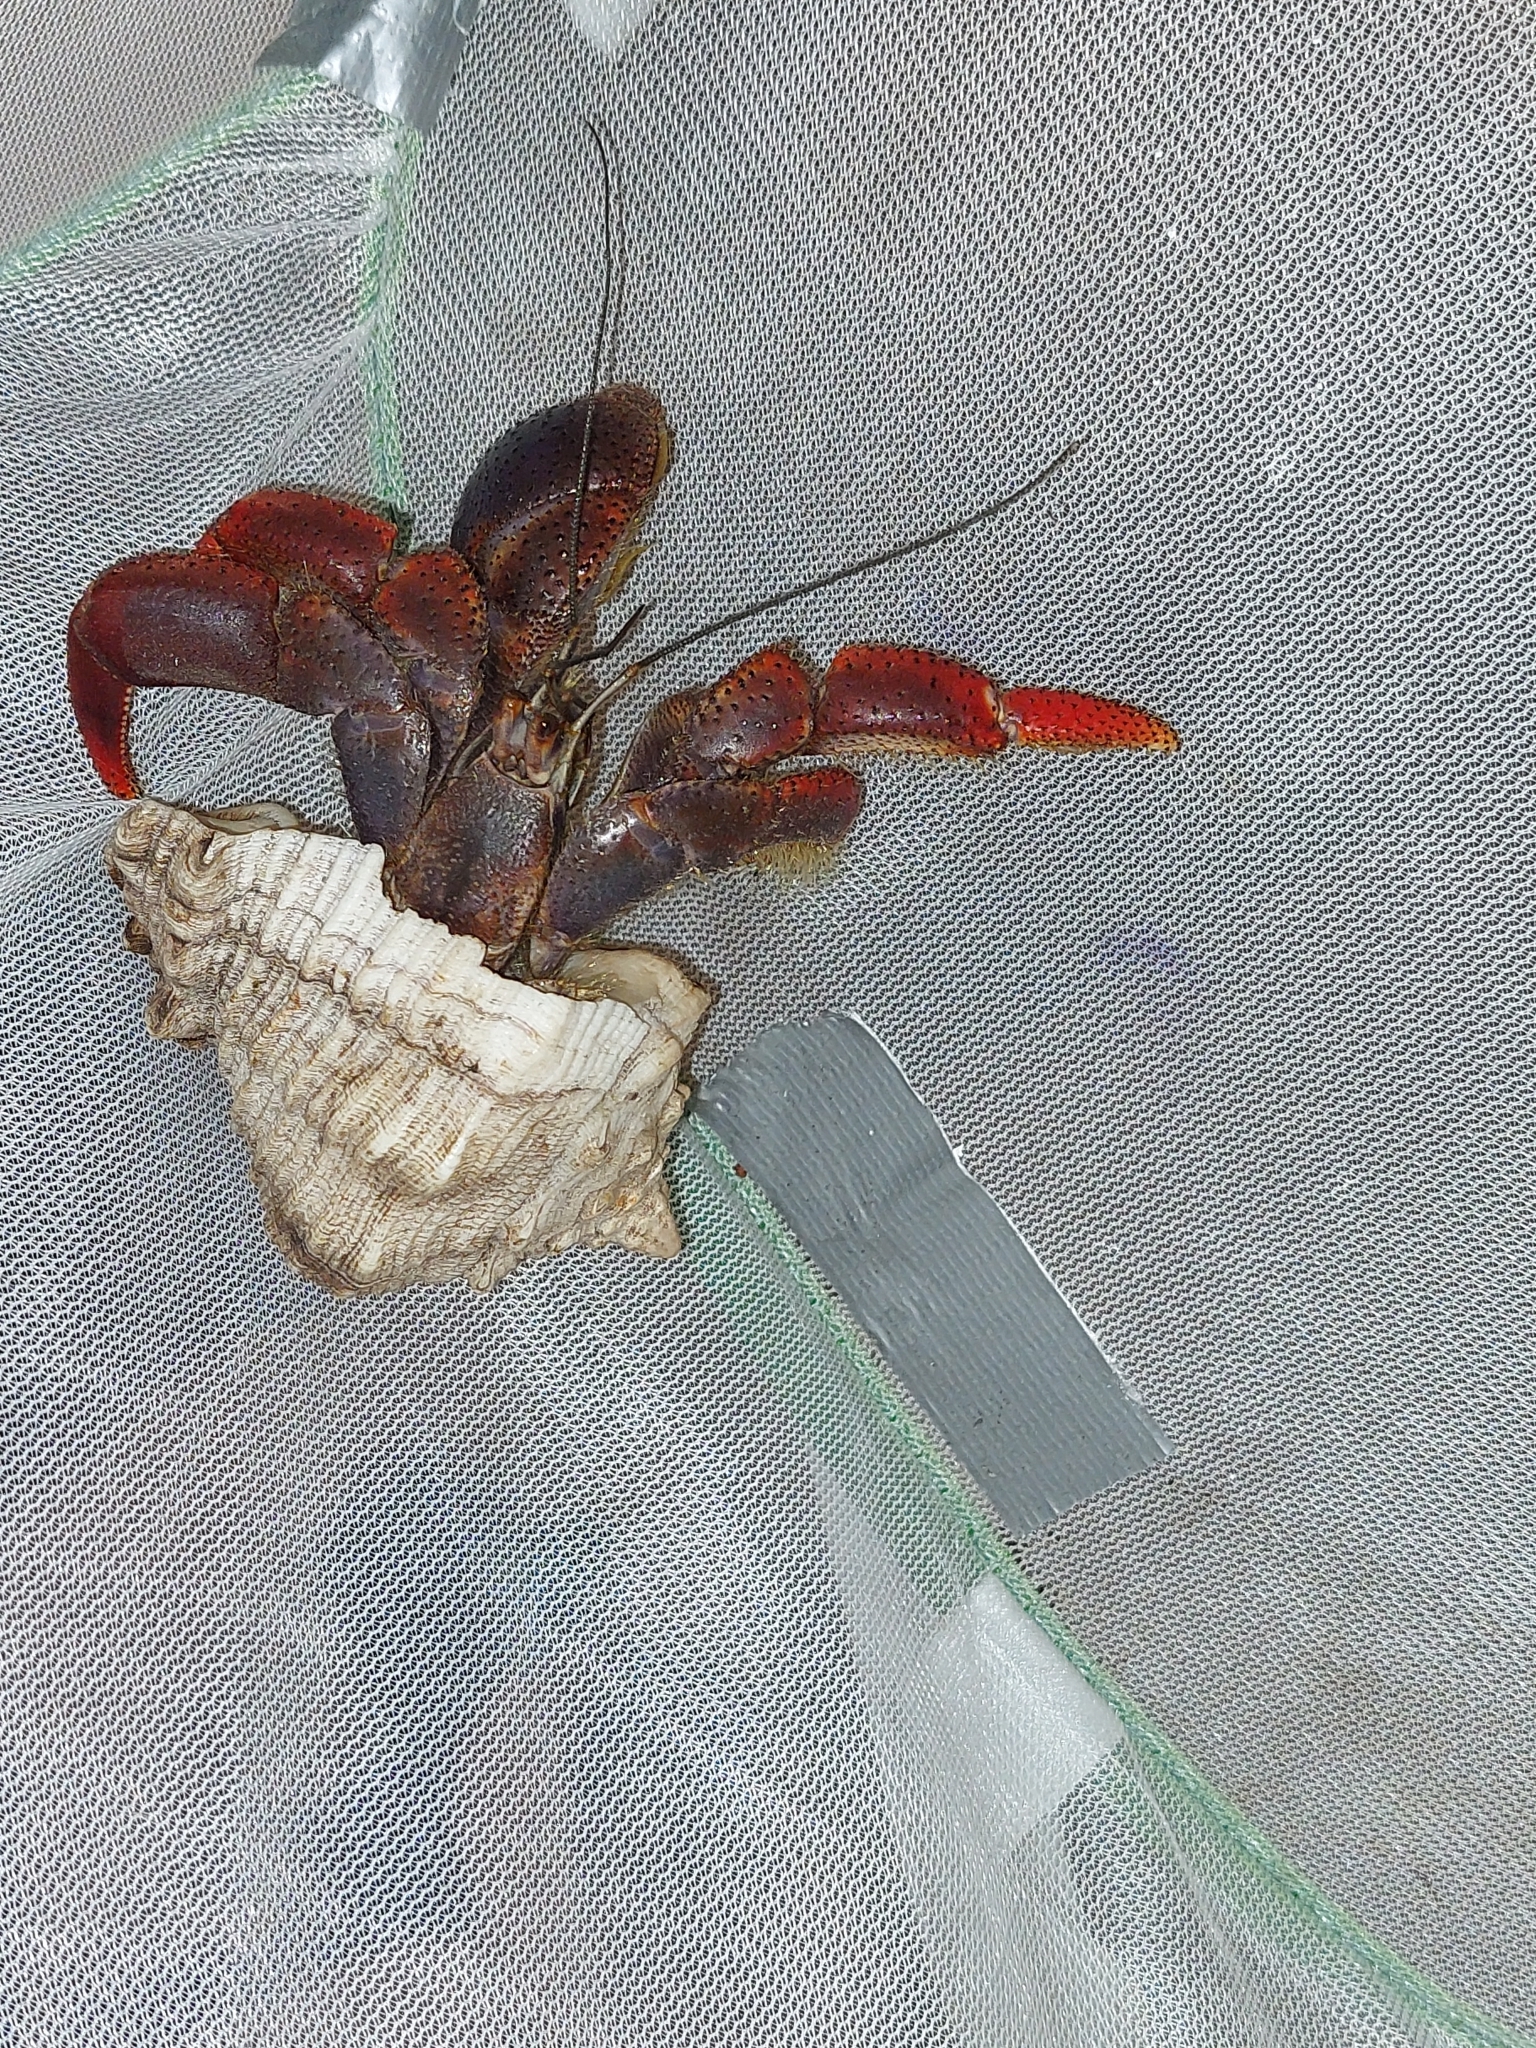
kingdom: Animalia
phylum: Arthropoda
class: Malacostraca
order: Decapoda
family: Coenobitidae
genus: Coenobita
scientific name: Coenobita clypeatus
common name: Caribbean hermit crab
